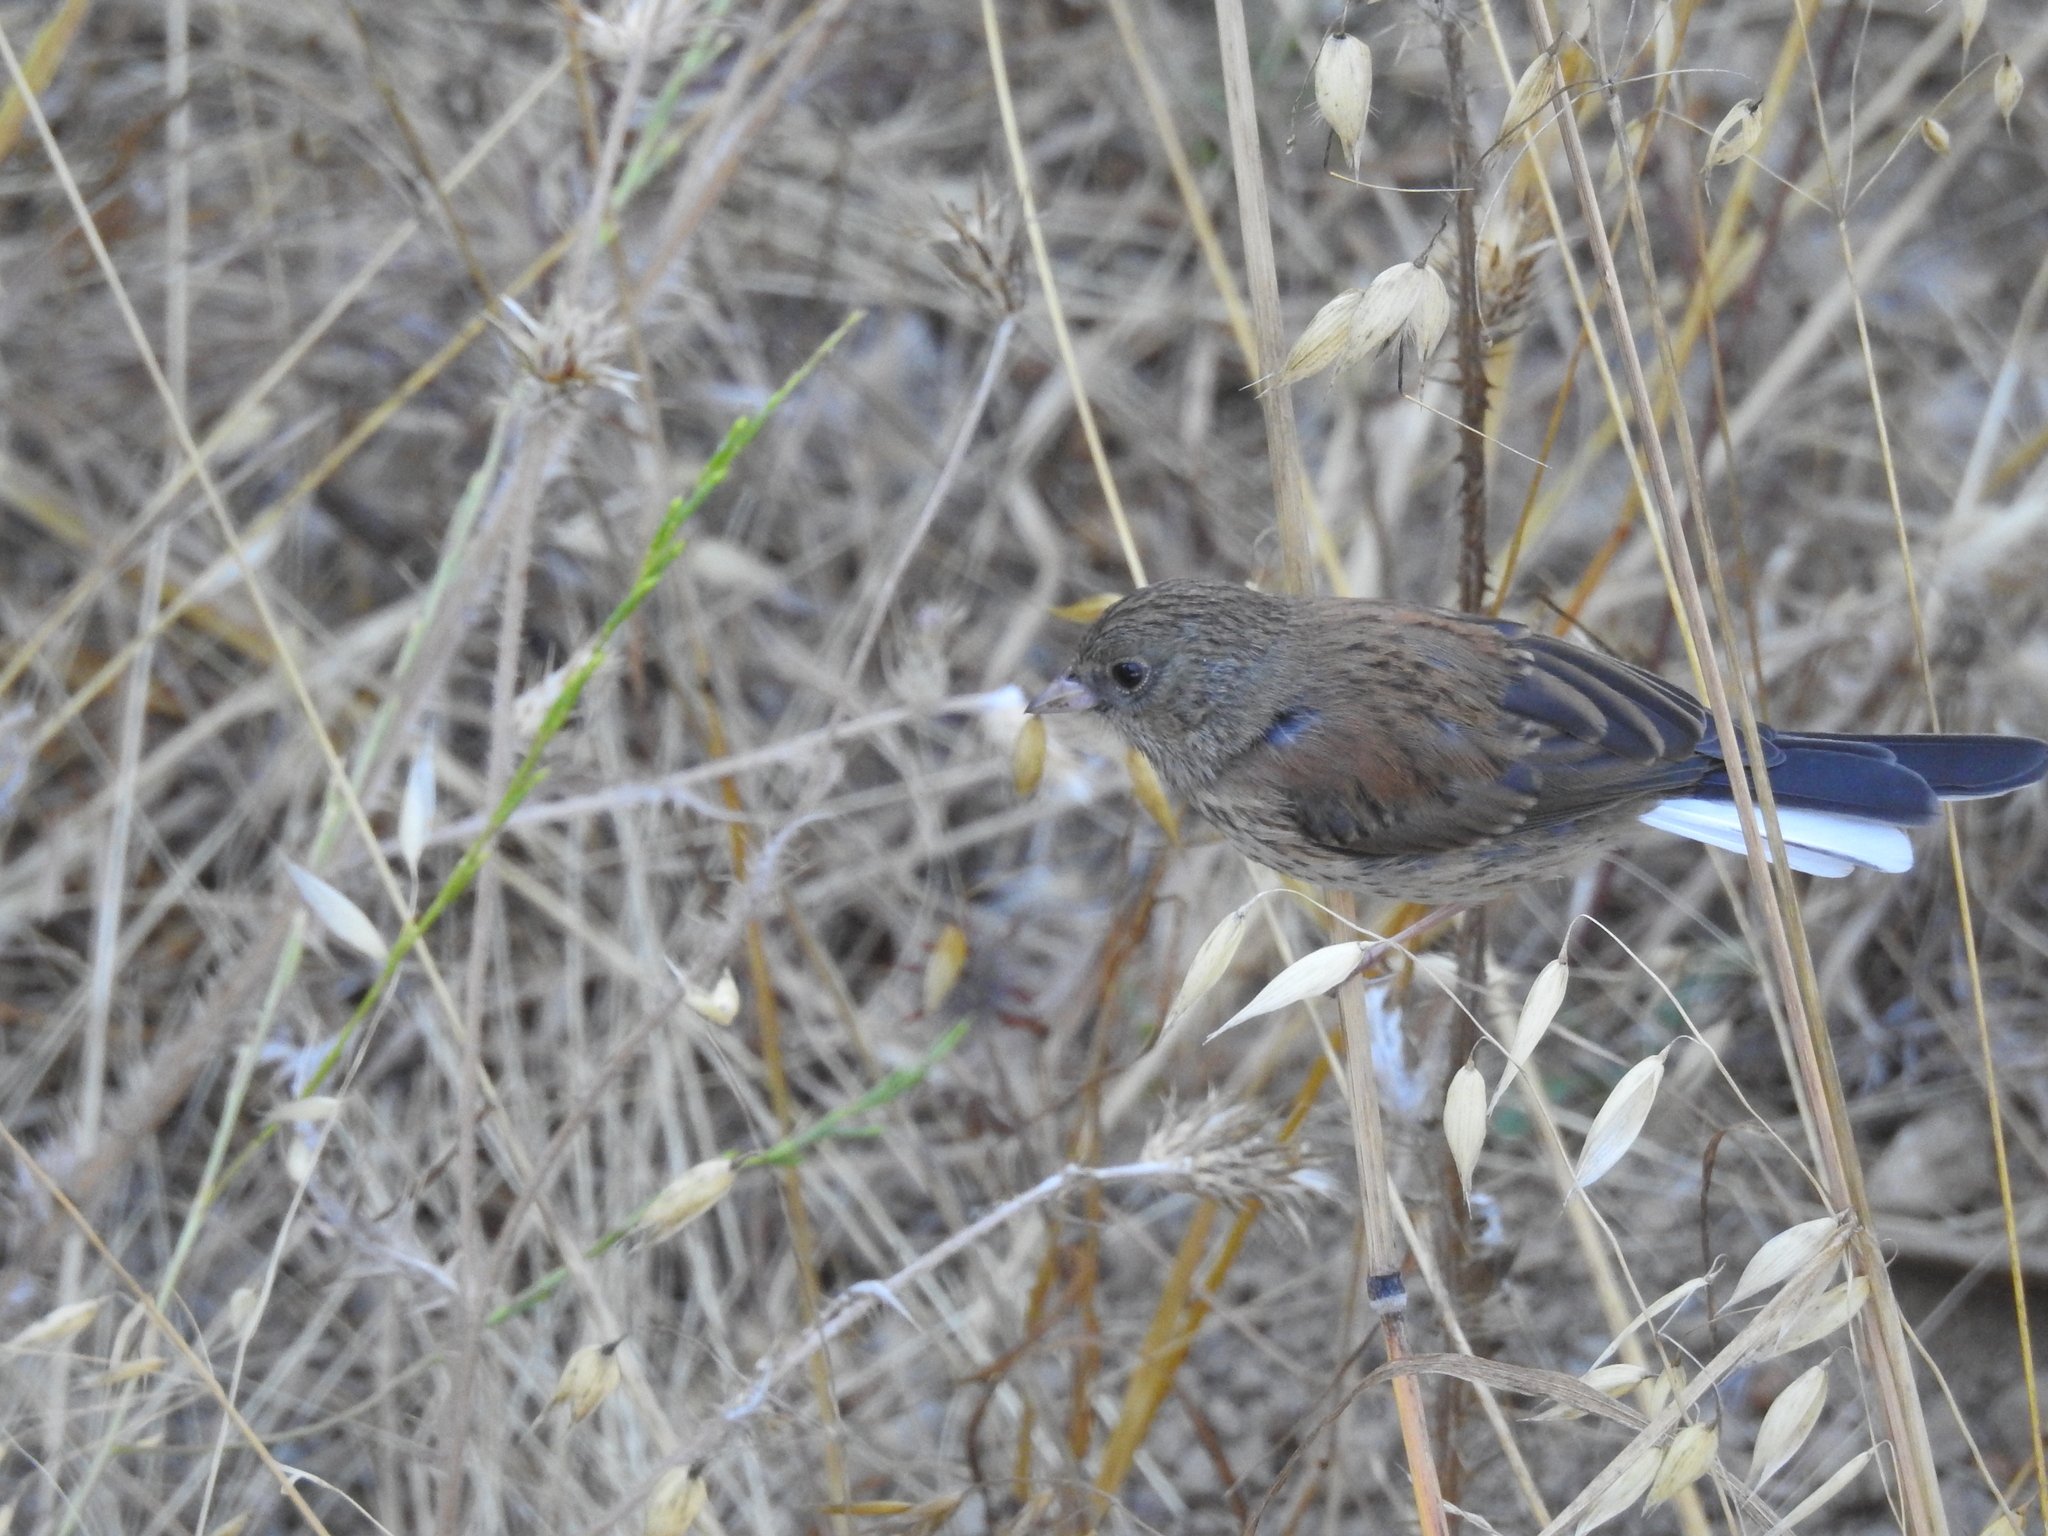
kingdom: Animalia
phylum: Chordata
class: Aves
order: Passeriformes
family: Passerellidae
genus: Junco
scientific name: Junco hyemalis
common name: Dark-eyed junco
